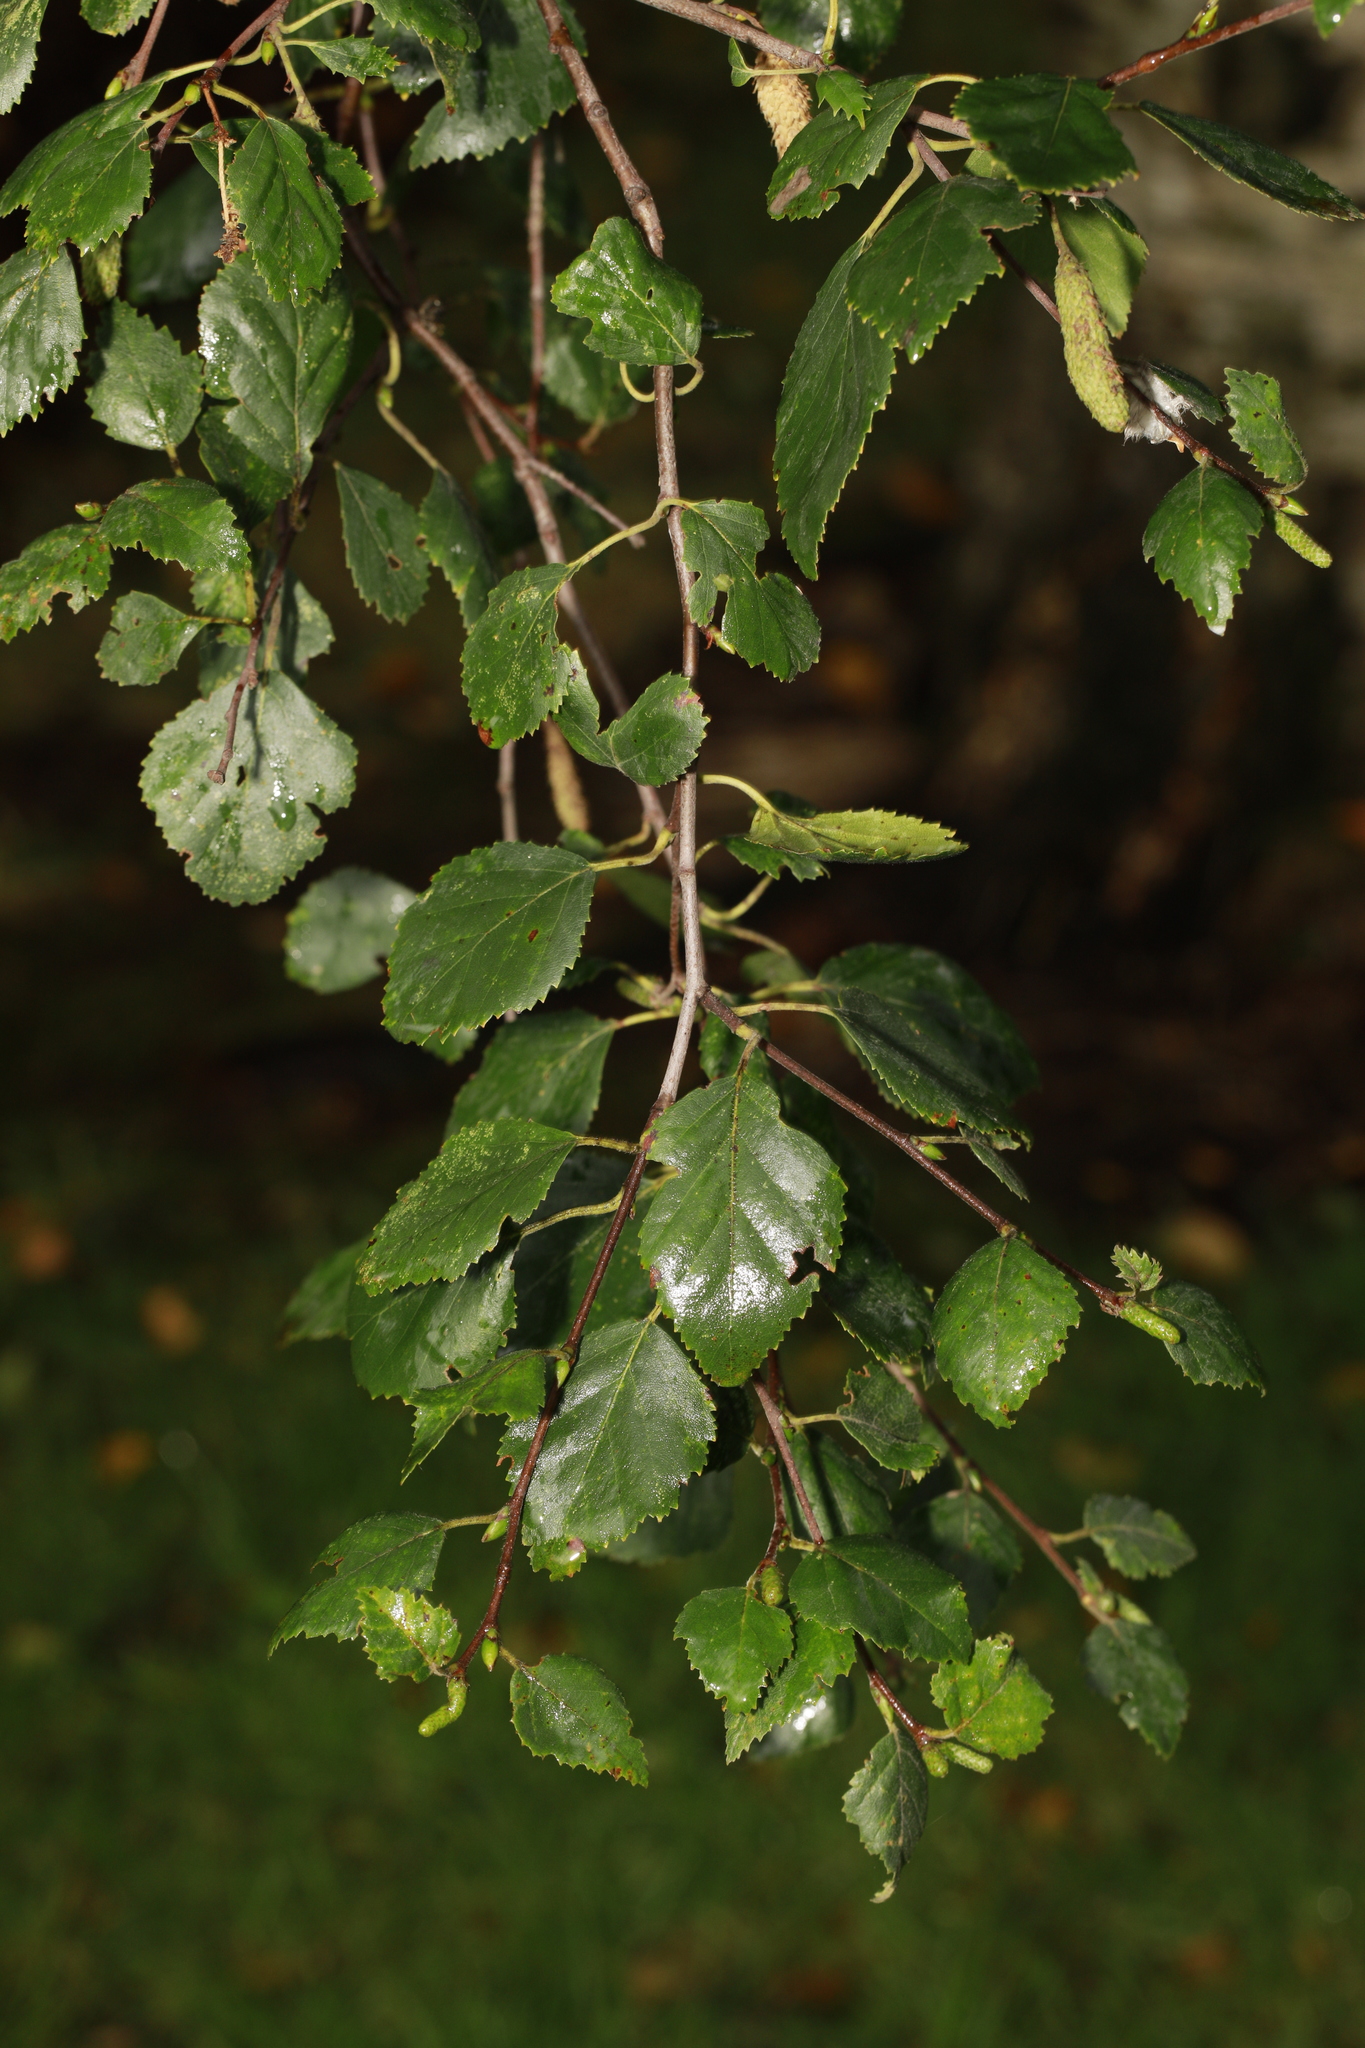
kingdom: Plantae
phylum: Tracheophyta
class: Magnoliopsida
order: Fagales
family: Betulaceae
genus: Betula
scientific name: Betula pubescens
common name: Downy birch
